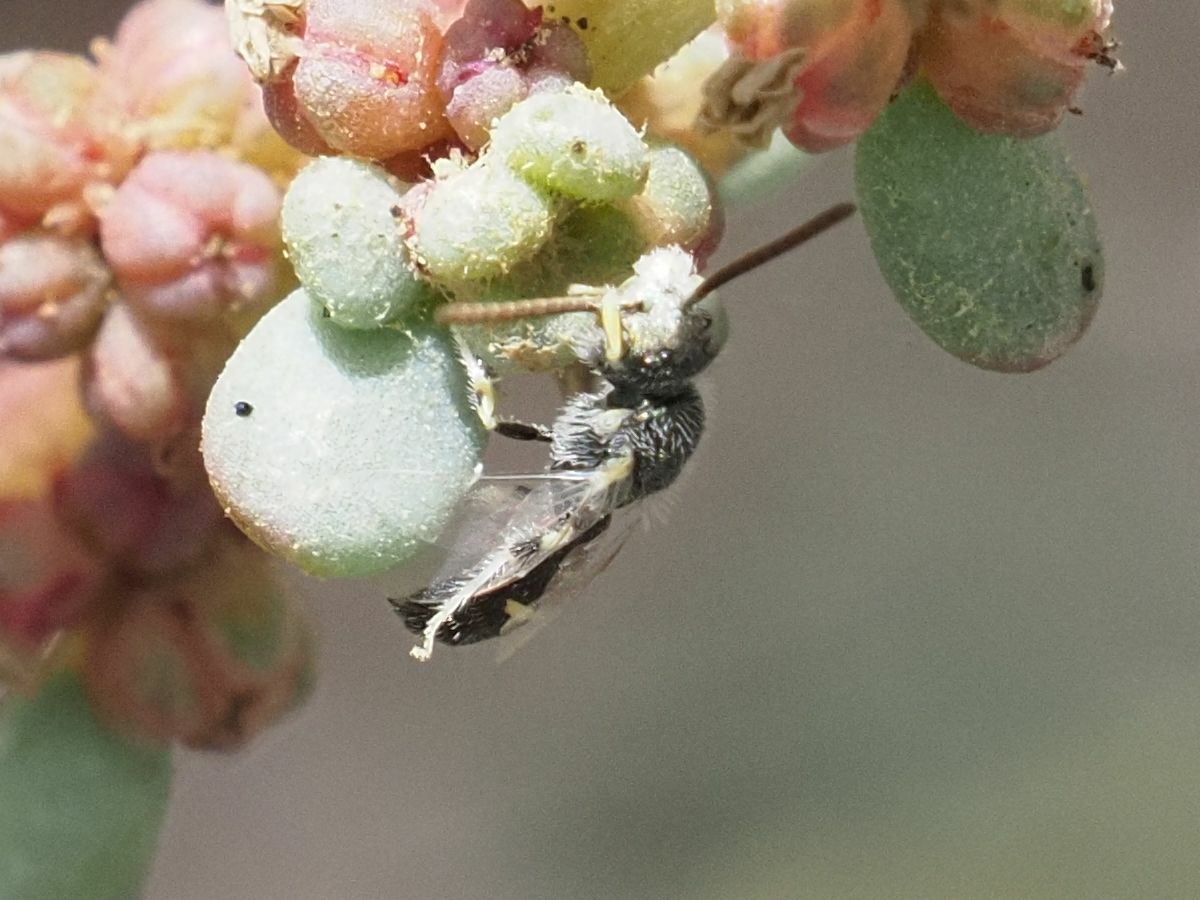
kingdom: Animalia
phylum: Arthropoda
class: Insecta
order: Hymenoptera
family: Halictidae
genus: Ceylalictus
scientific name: Ceylalictus variegatus
